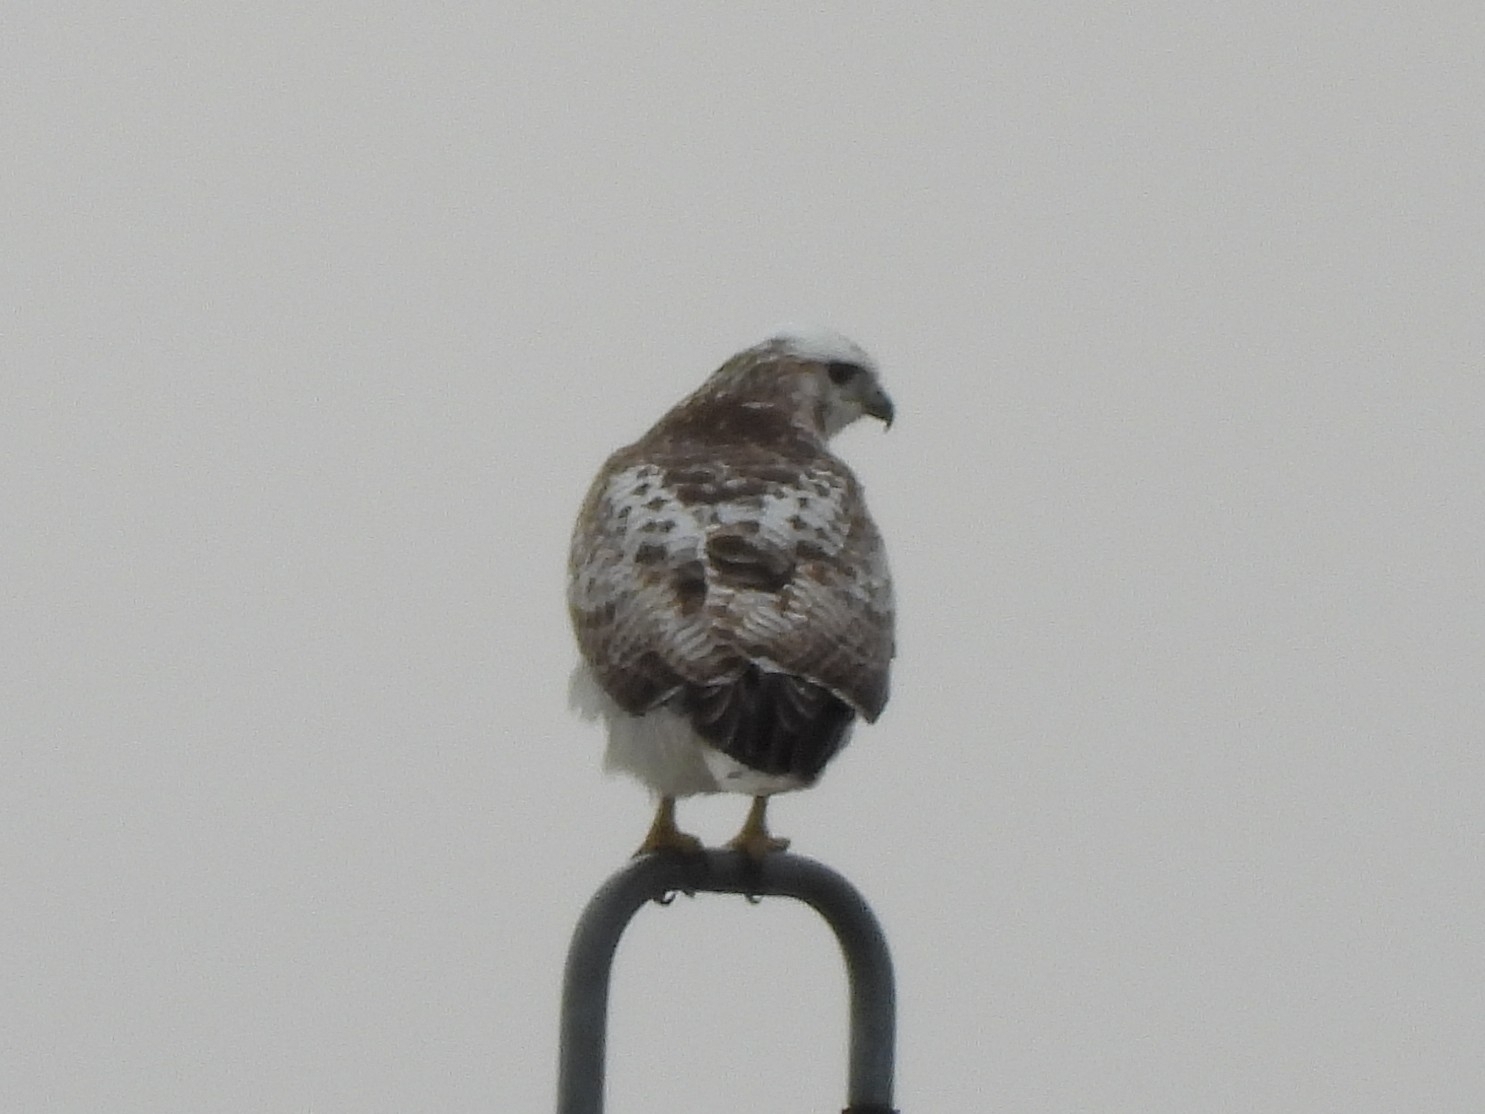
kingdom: Animalia
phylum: Chordata
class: Aves
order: Accipitriformes
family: Accipitridae
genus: Buteo
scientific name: Buteo jamaicensis
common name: Red-tailed hawk
